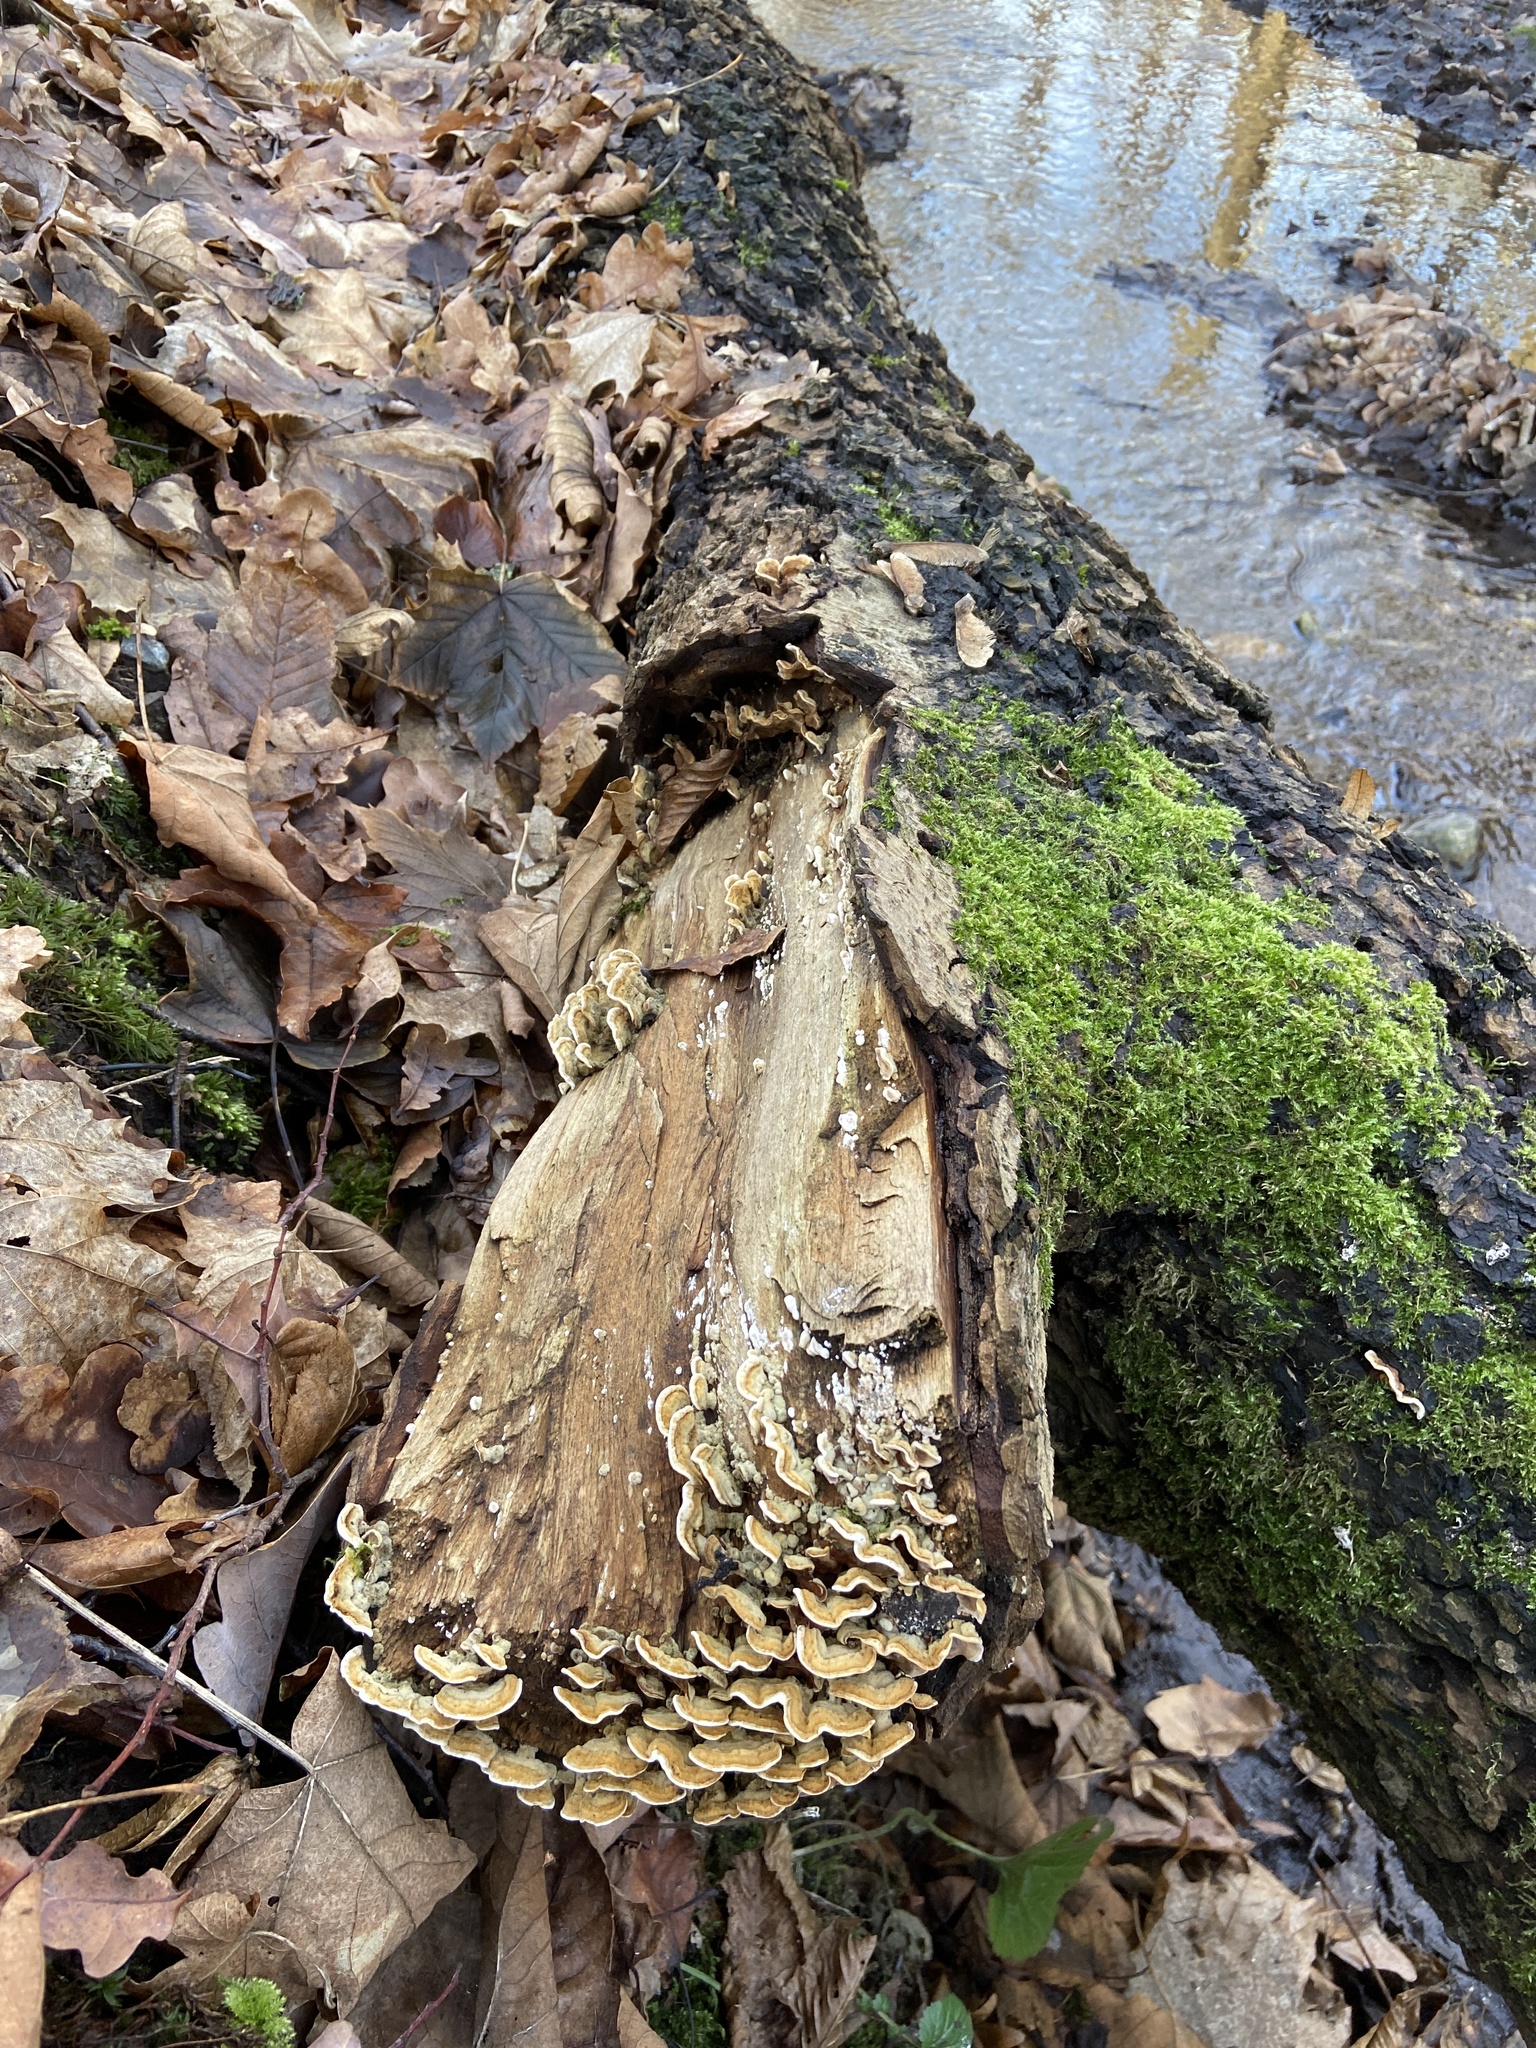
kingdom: Fungi
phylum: Basidiomycota
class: Agaricomycetes
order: Russulales
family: Stereaceae
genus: Stereum
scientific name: Stereum hirsutum
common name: Hairy curtain crust
